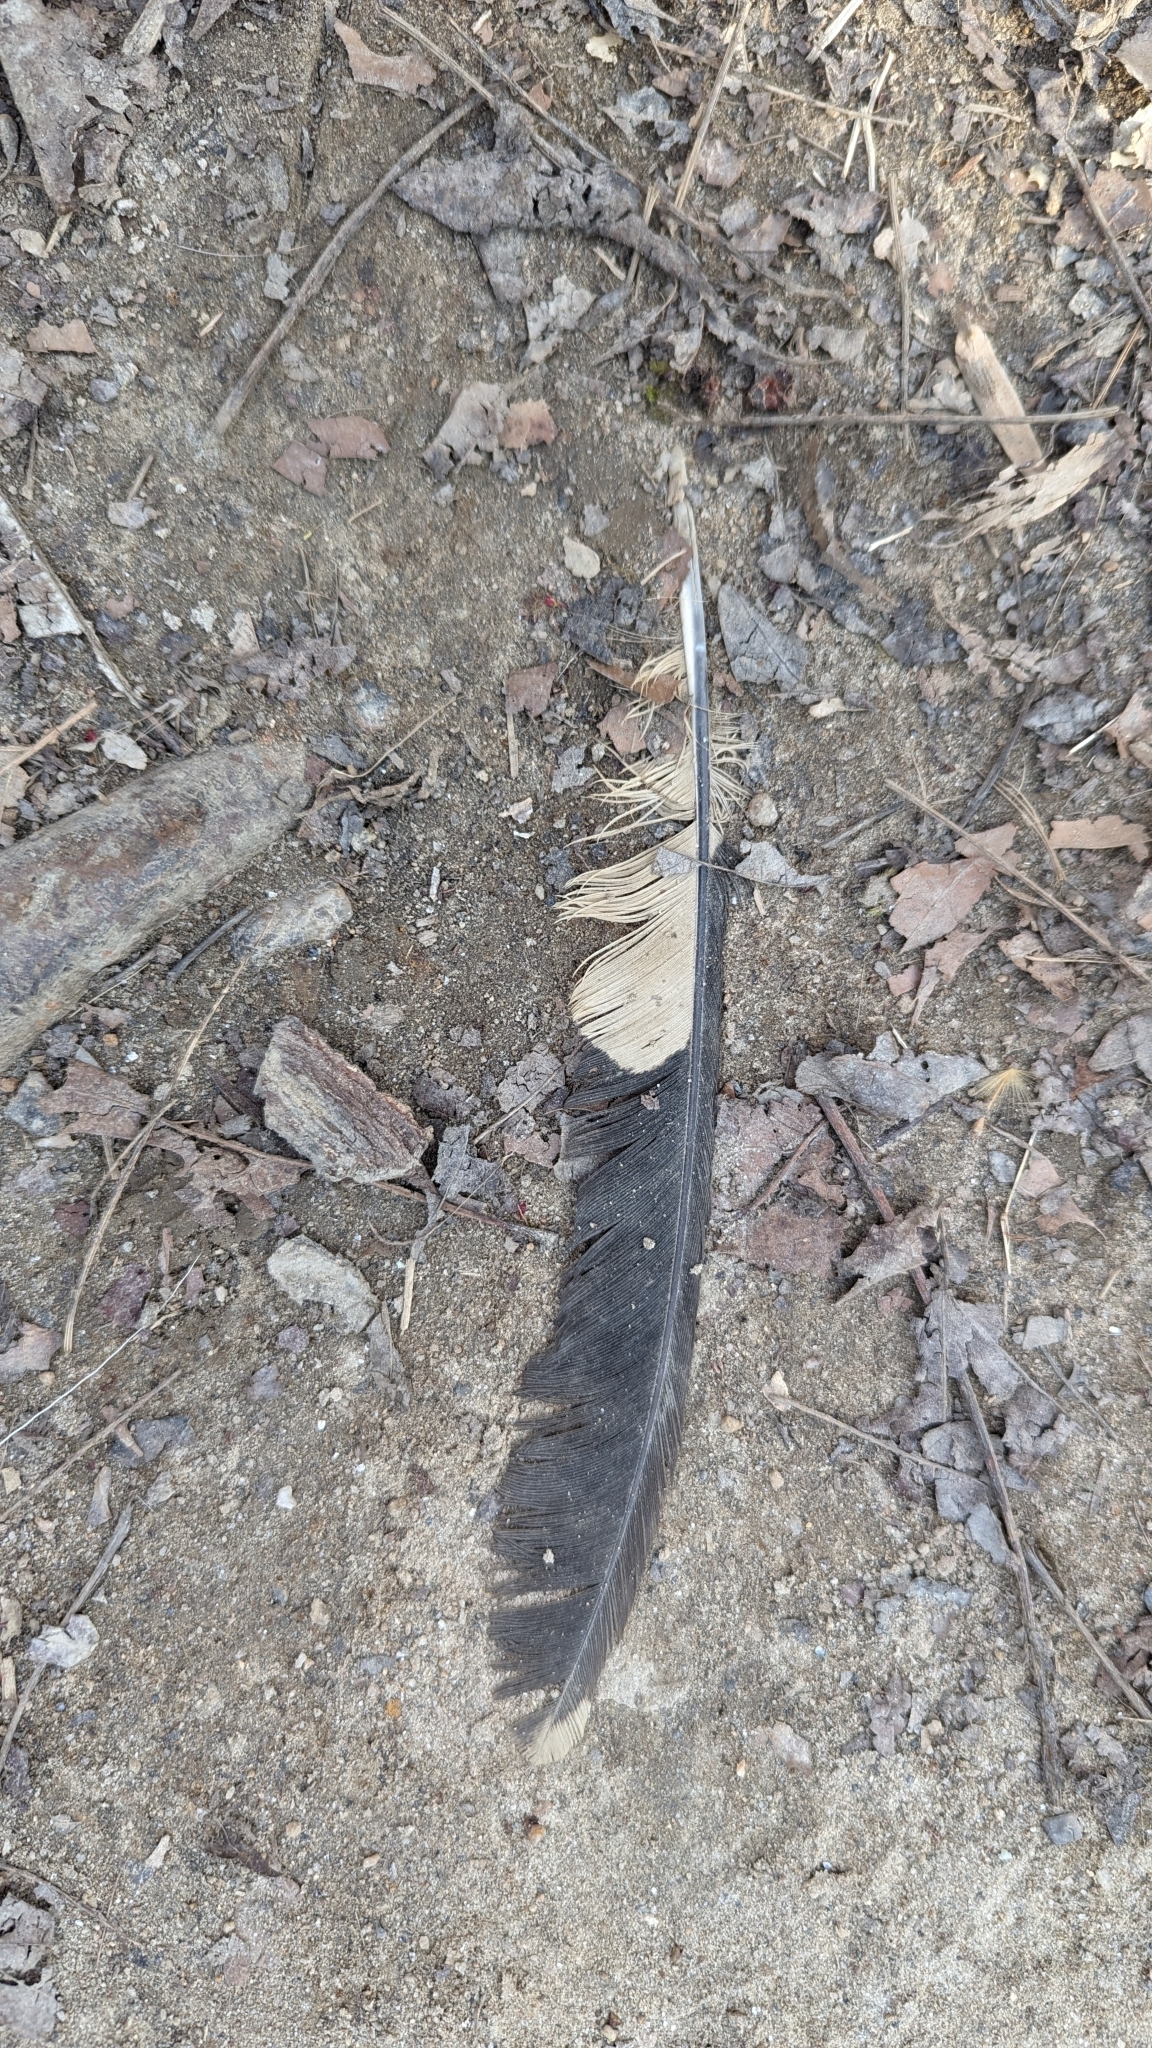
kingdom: Animalia
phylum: Chordata
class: Aves
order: Piciformes
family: Picidae
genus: Dryocopus
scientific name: Dryocopus pileatus
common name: Pileated woodpecker
